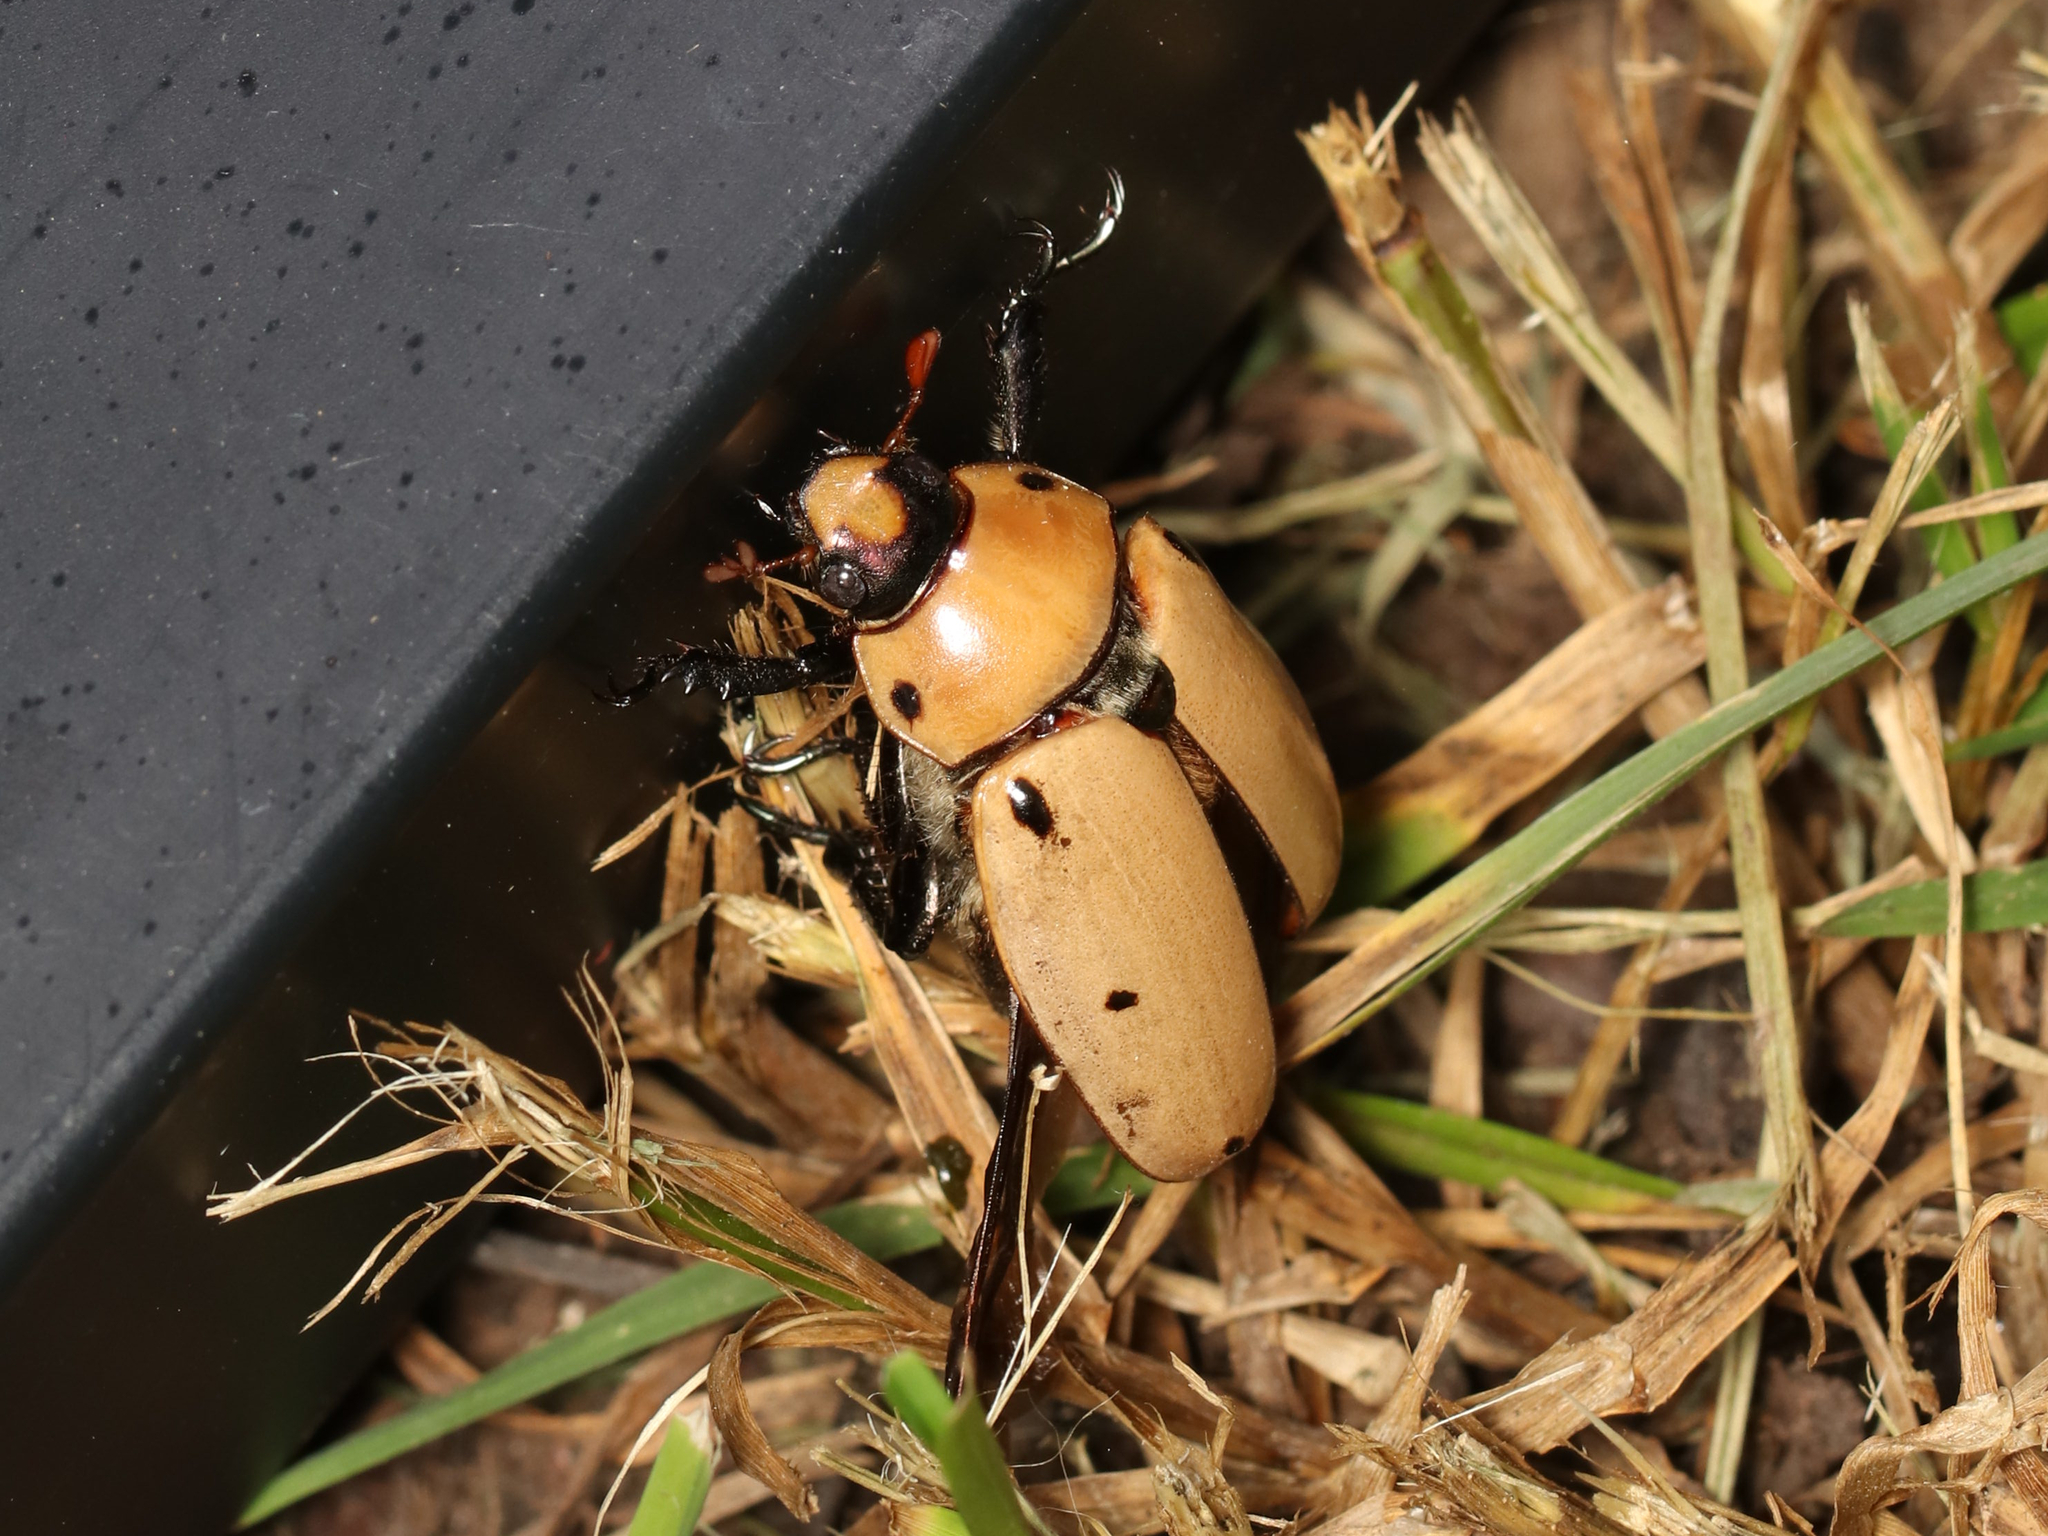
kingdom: Animalia
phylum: Arthropoda
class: Insecta
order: Coleoptera
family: Scarabaeidae
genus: Pelidnota
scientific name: Pelidnota punctata
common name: Grapevine beetle
